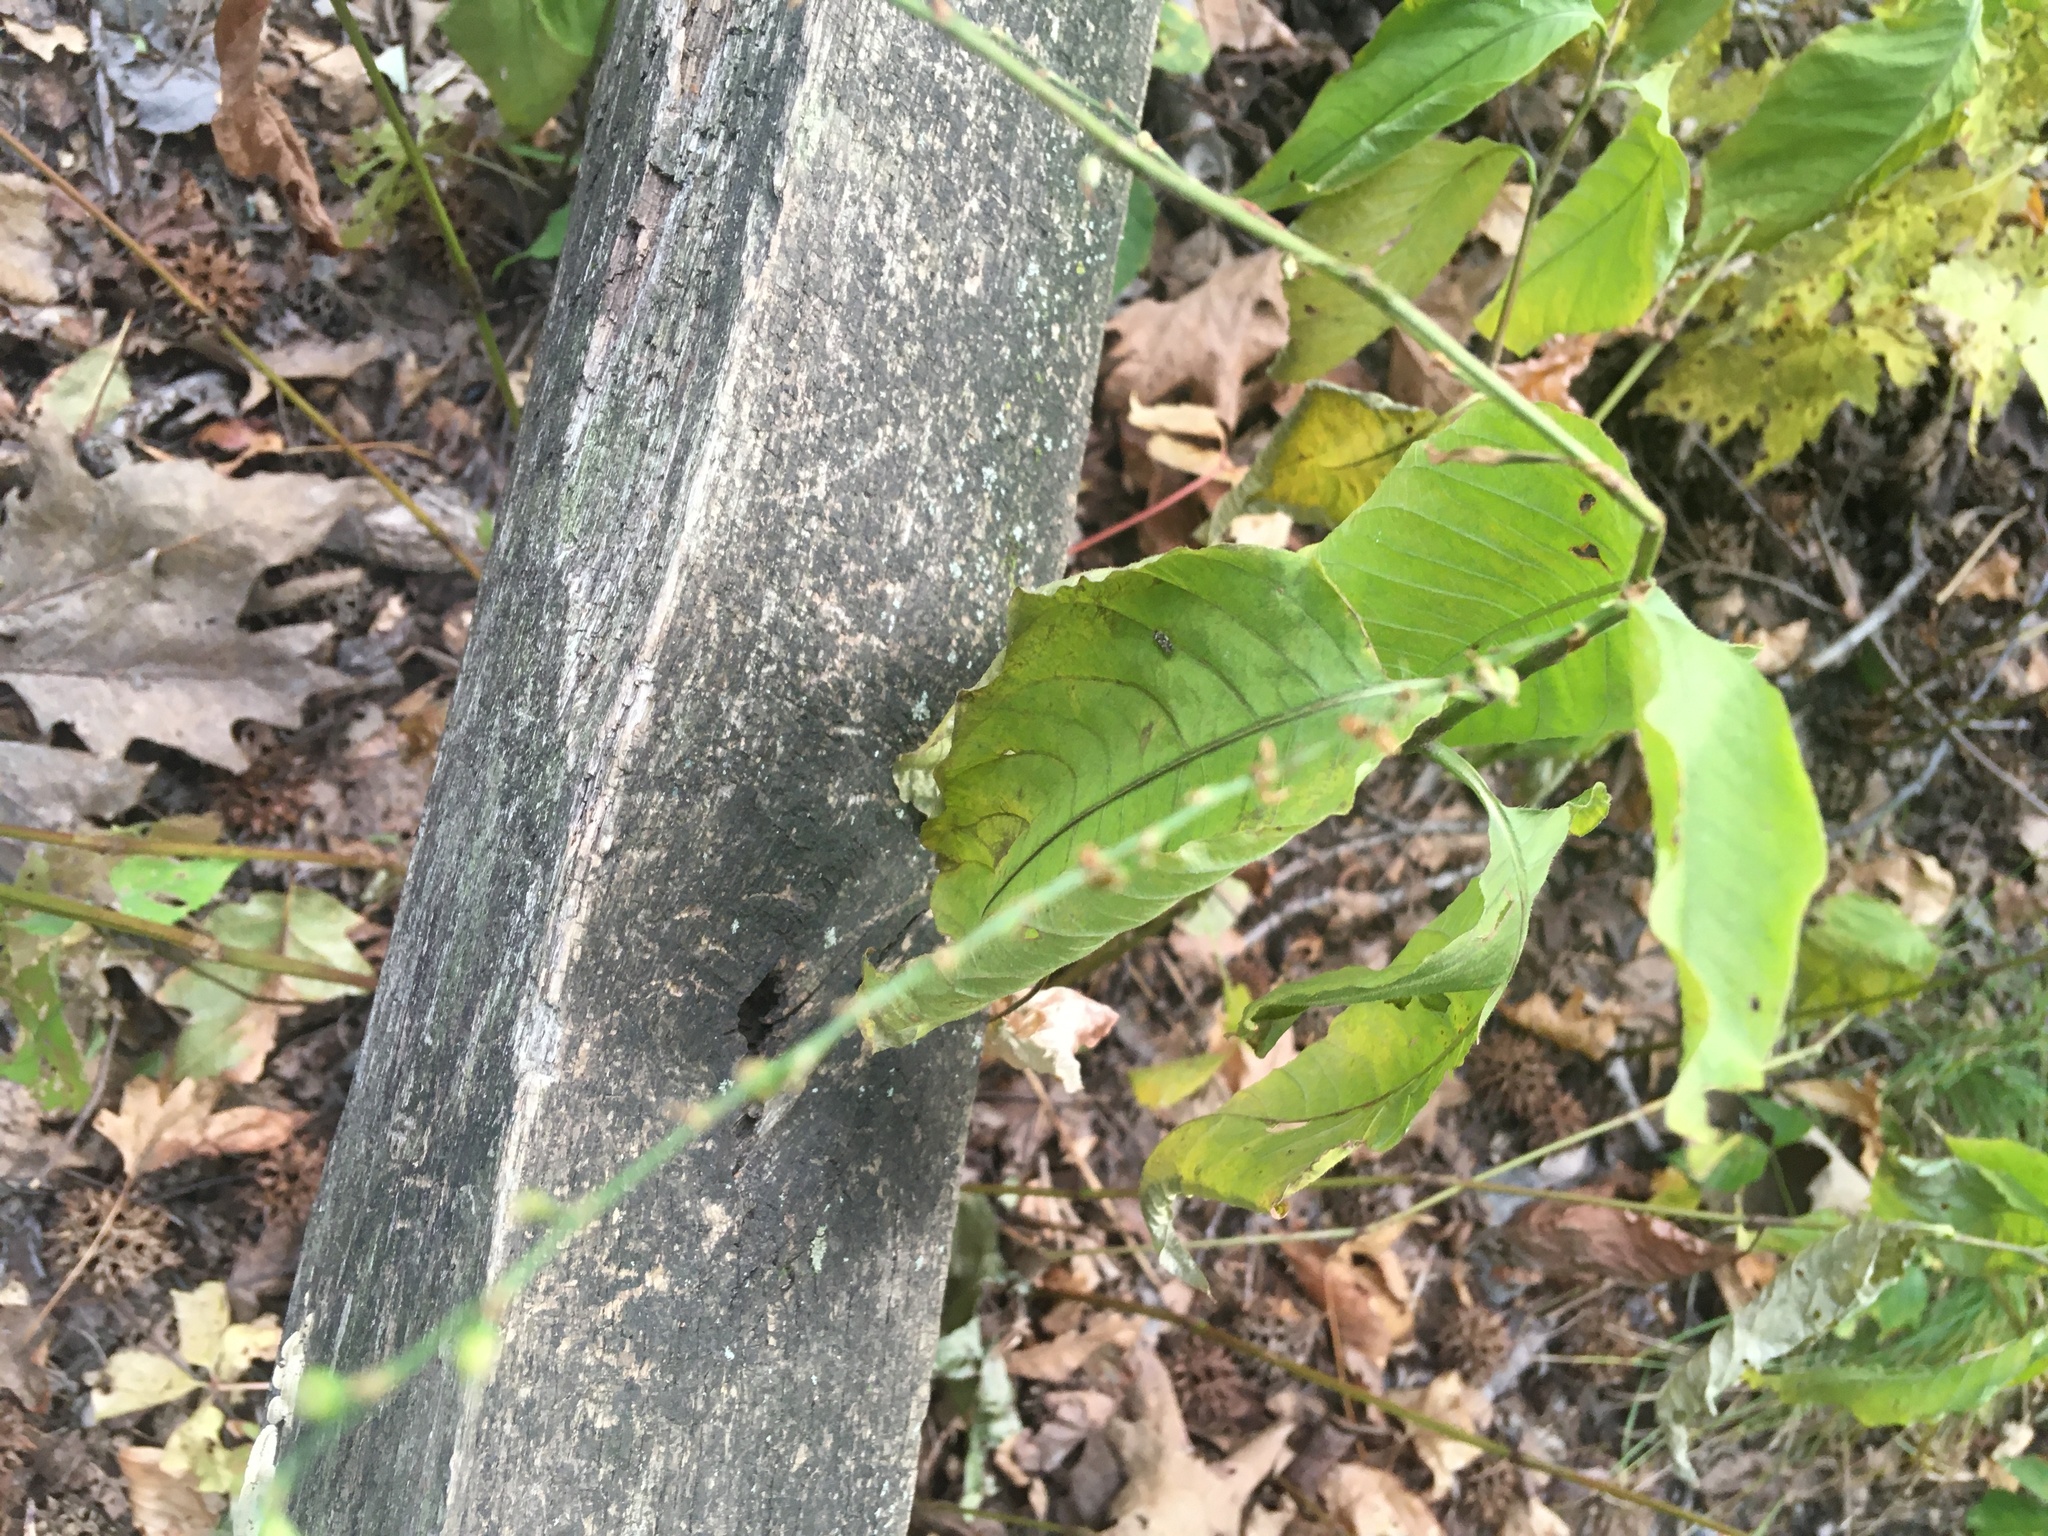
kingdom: Plantae
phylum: Tracheophyta
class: Magnoliopsida
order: Caryophyllales
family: Polygonaceae
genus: Persicaria
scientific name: Persicaria virginiana
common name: Jumpseed
